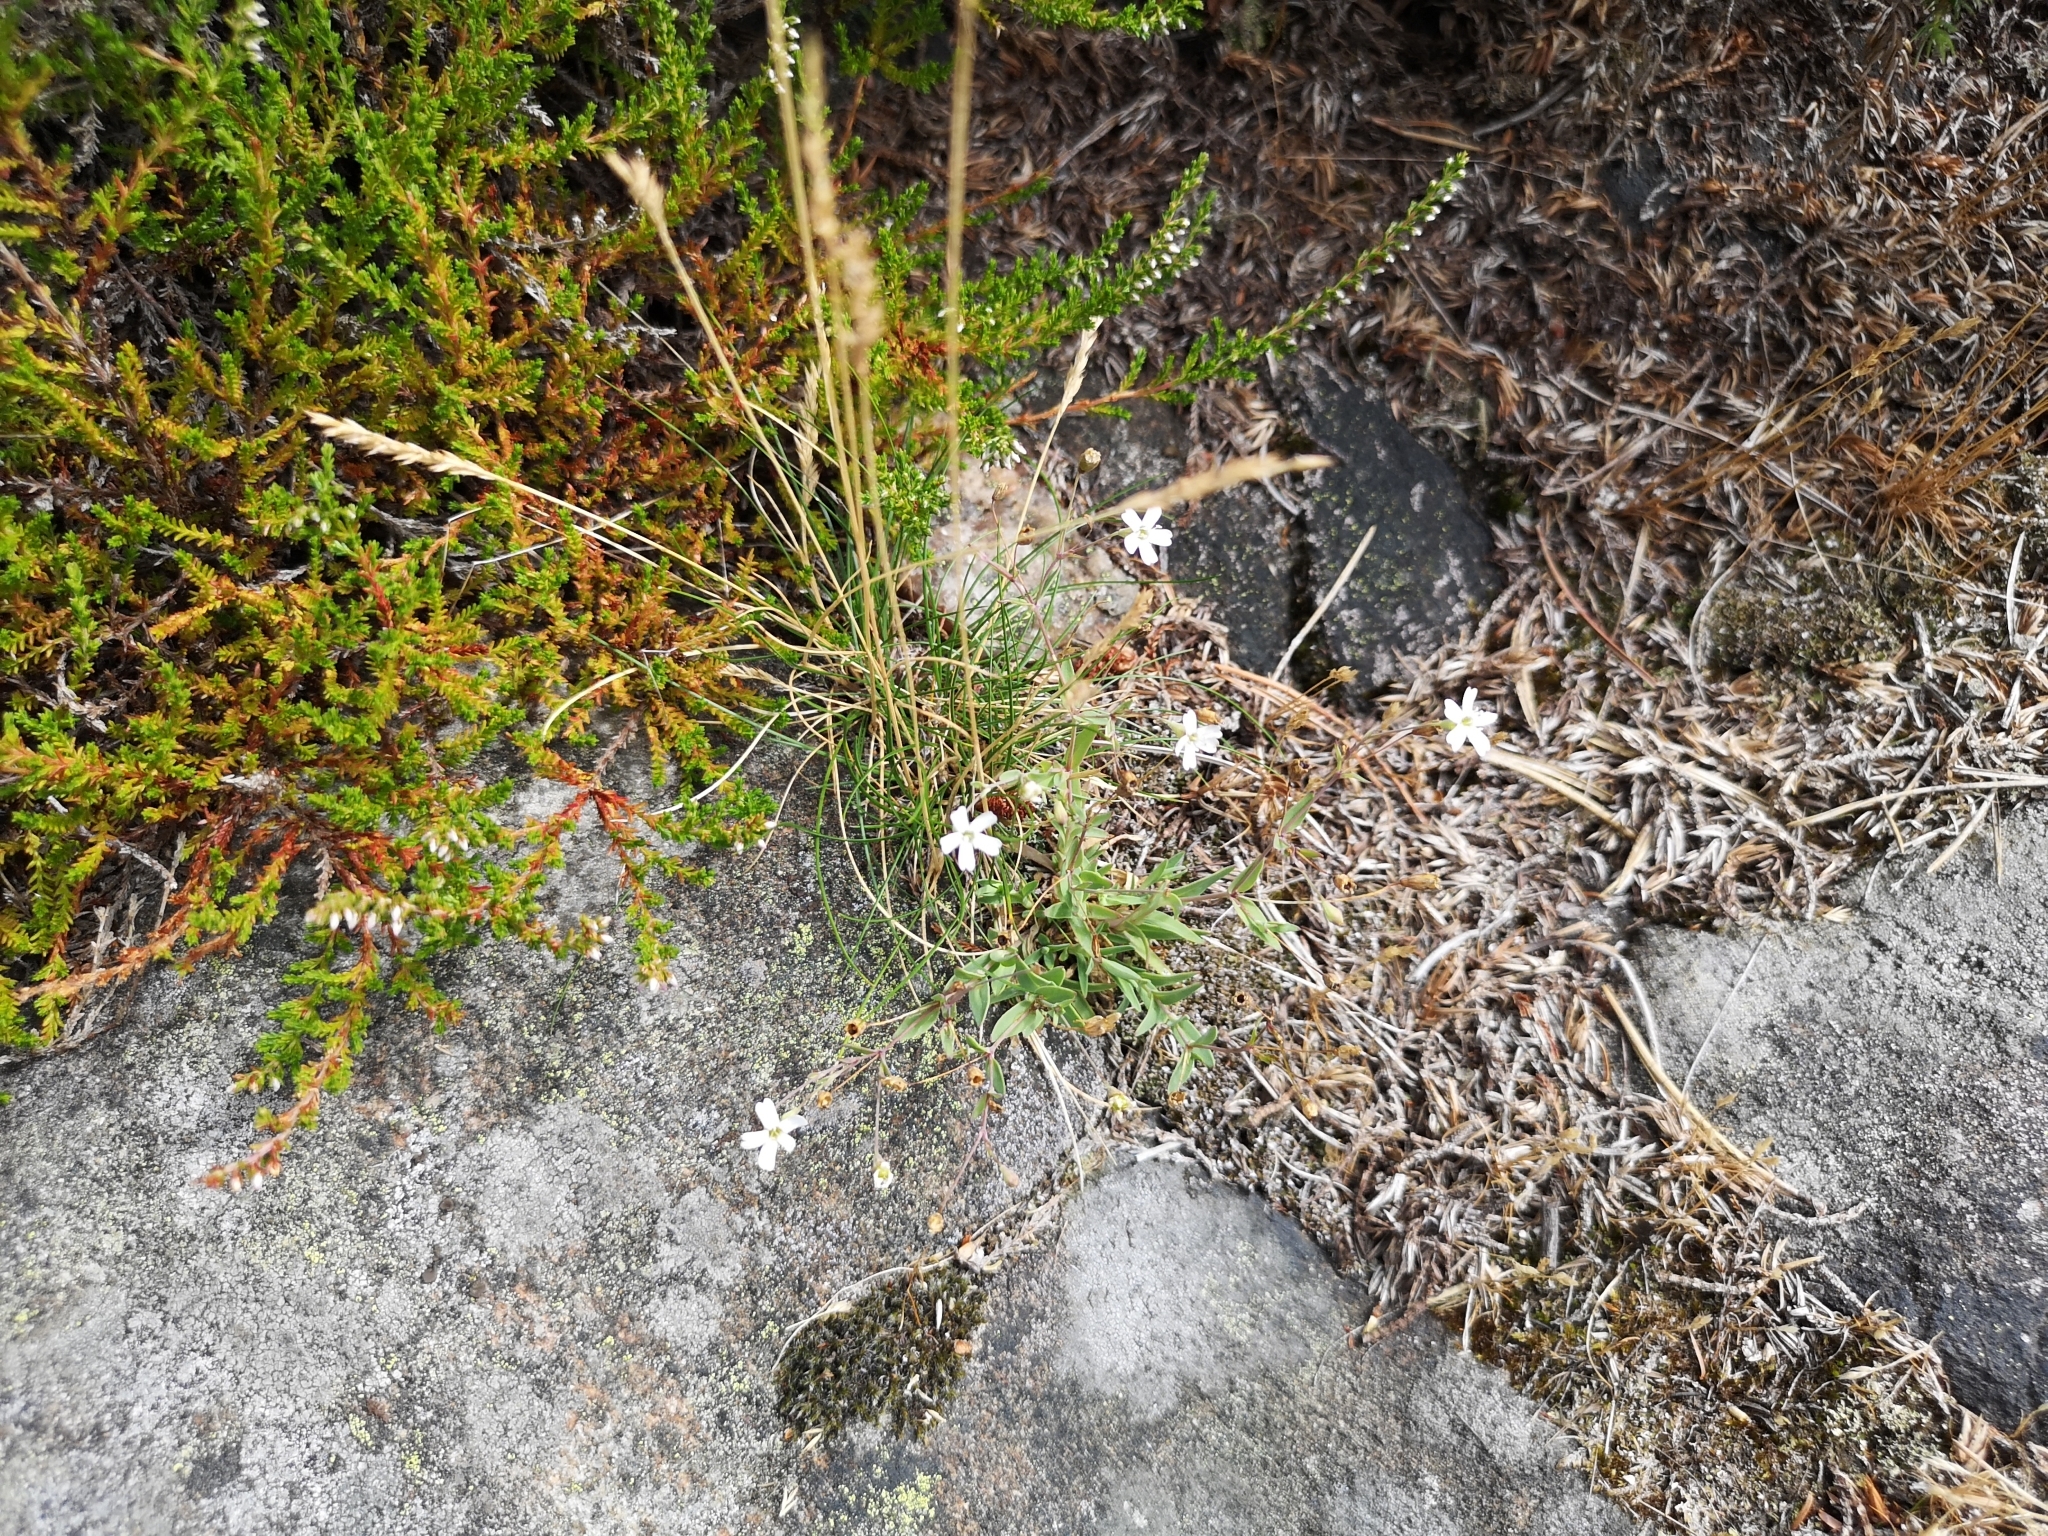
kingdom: Plantae
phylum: Tracheophyta
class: Magnoliopsida
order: Caryophyllales
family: Caryophyllaceae
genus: Atocion
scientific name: Atocion rupestre
